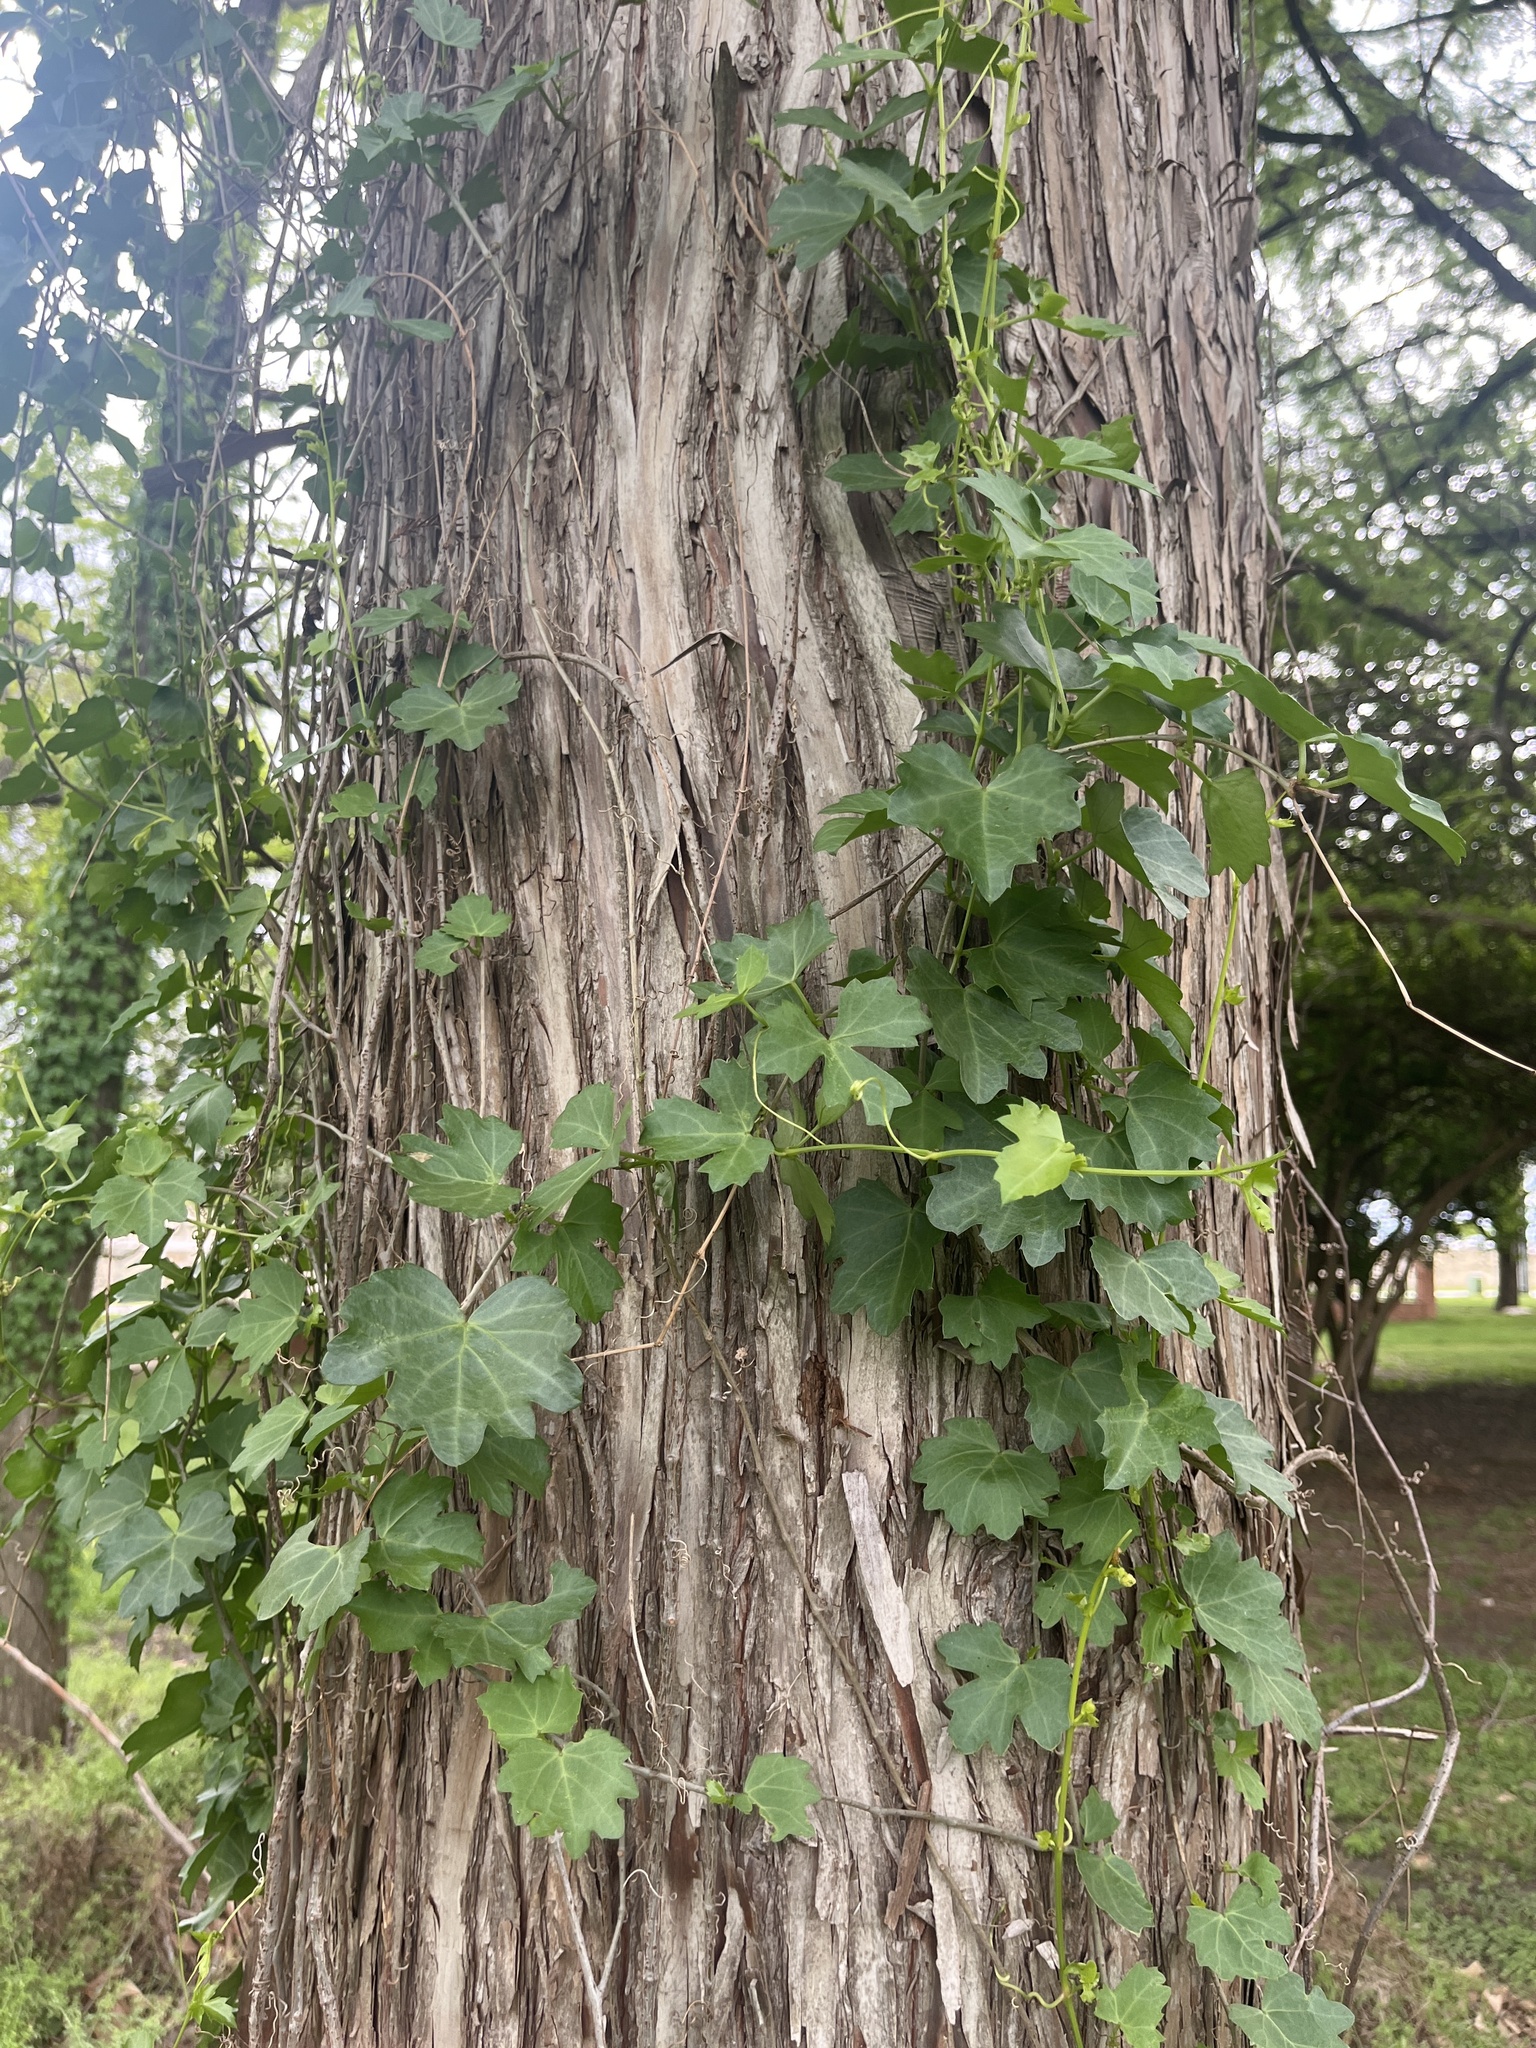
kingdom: Plantae
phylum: Tracheophyta
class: Magnoliopsida
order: Vitales
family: Vitaceae
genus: Cissus
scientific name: Cissus trifoliata
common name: Vine-sorrel
